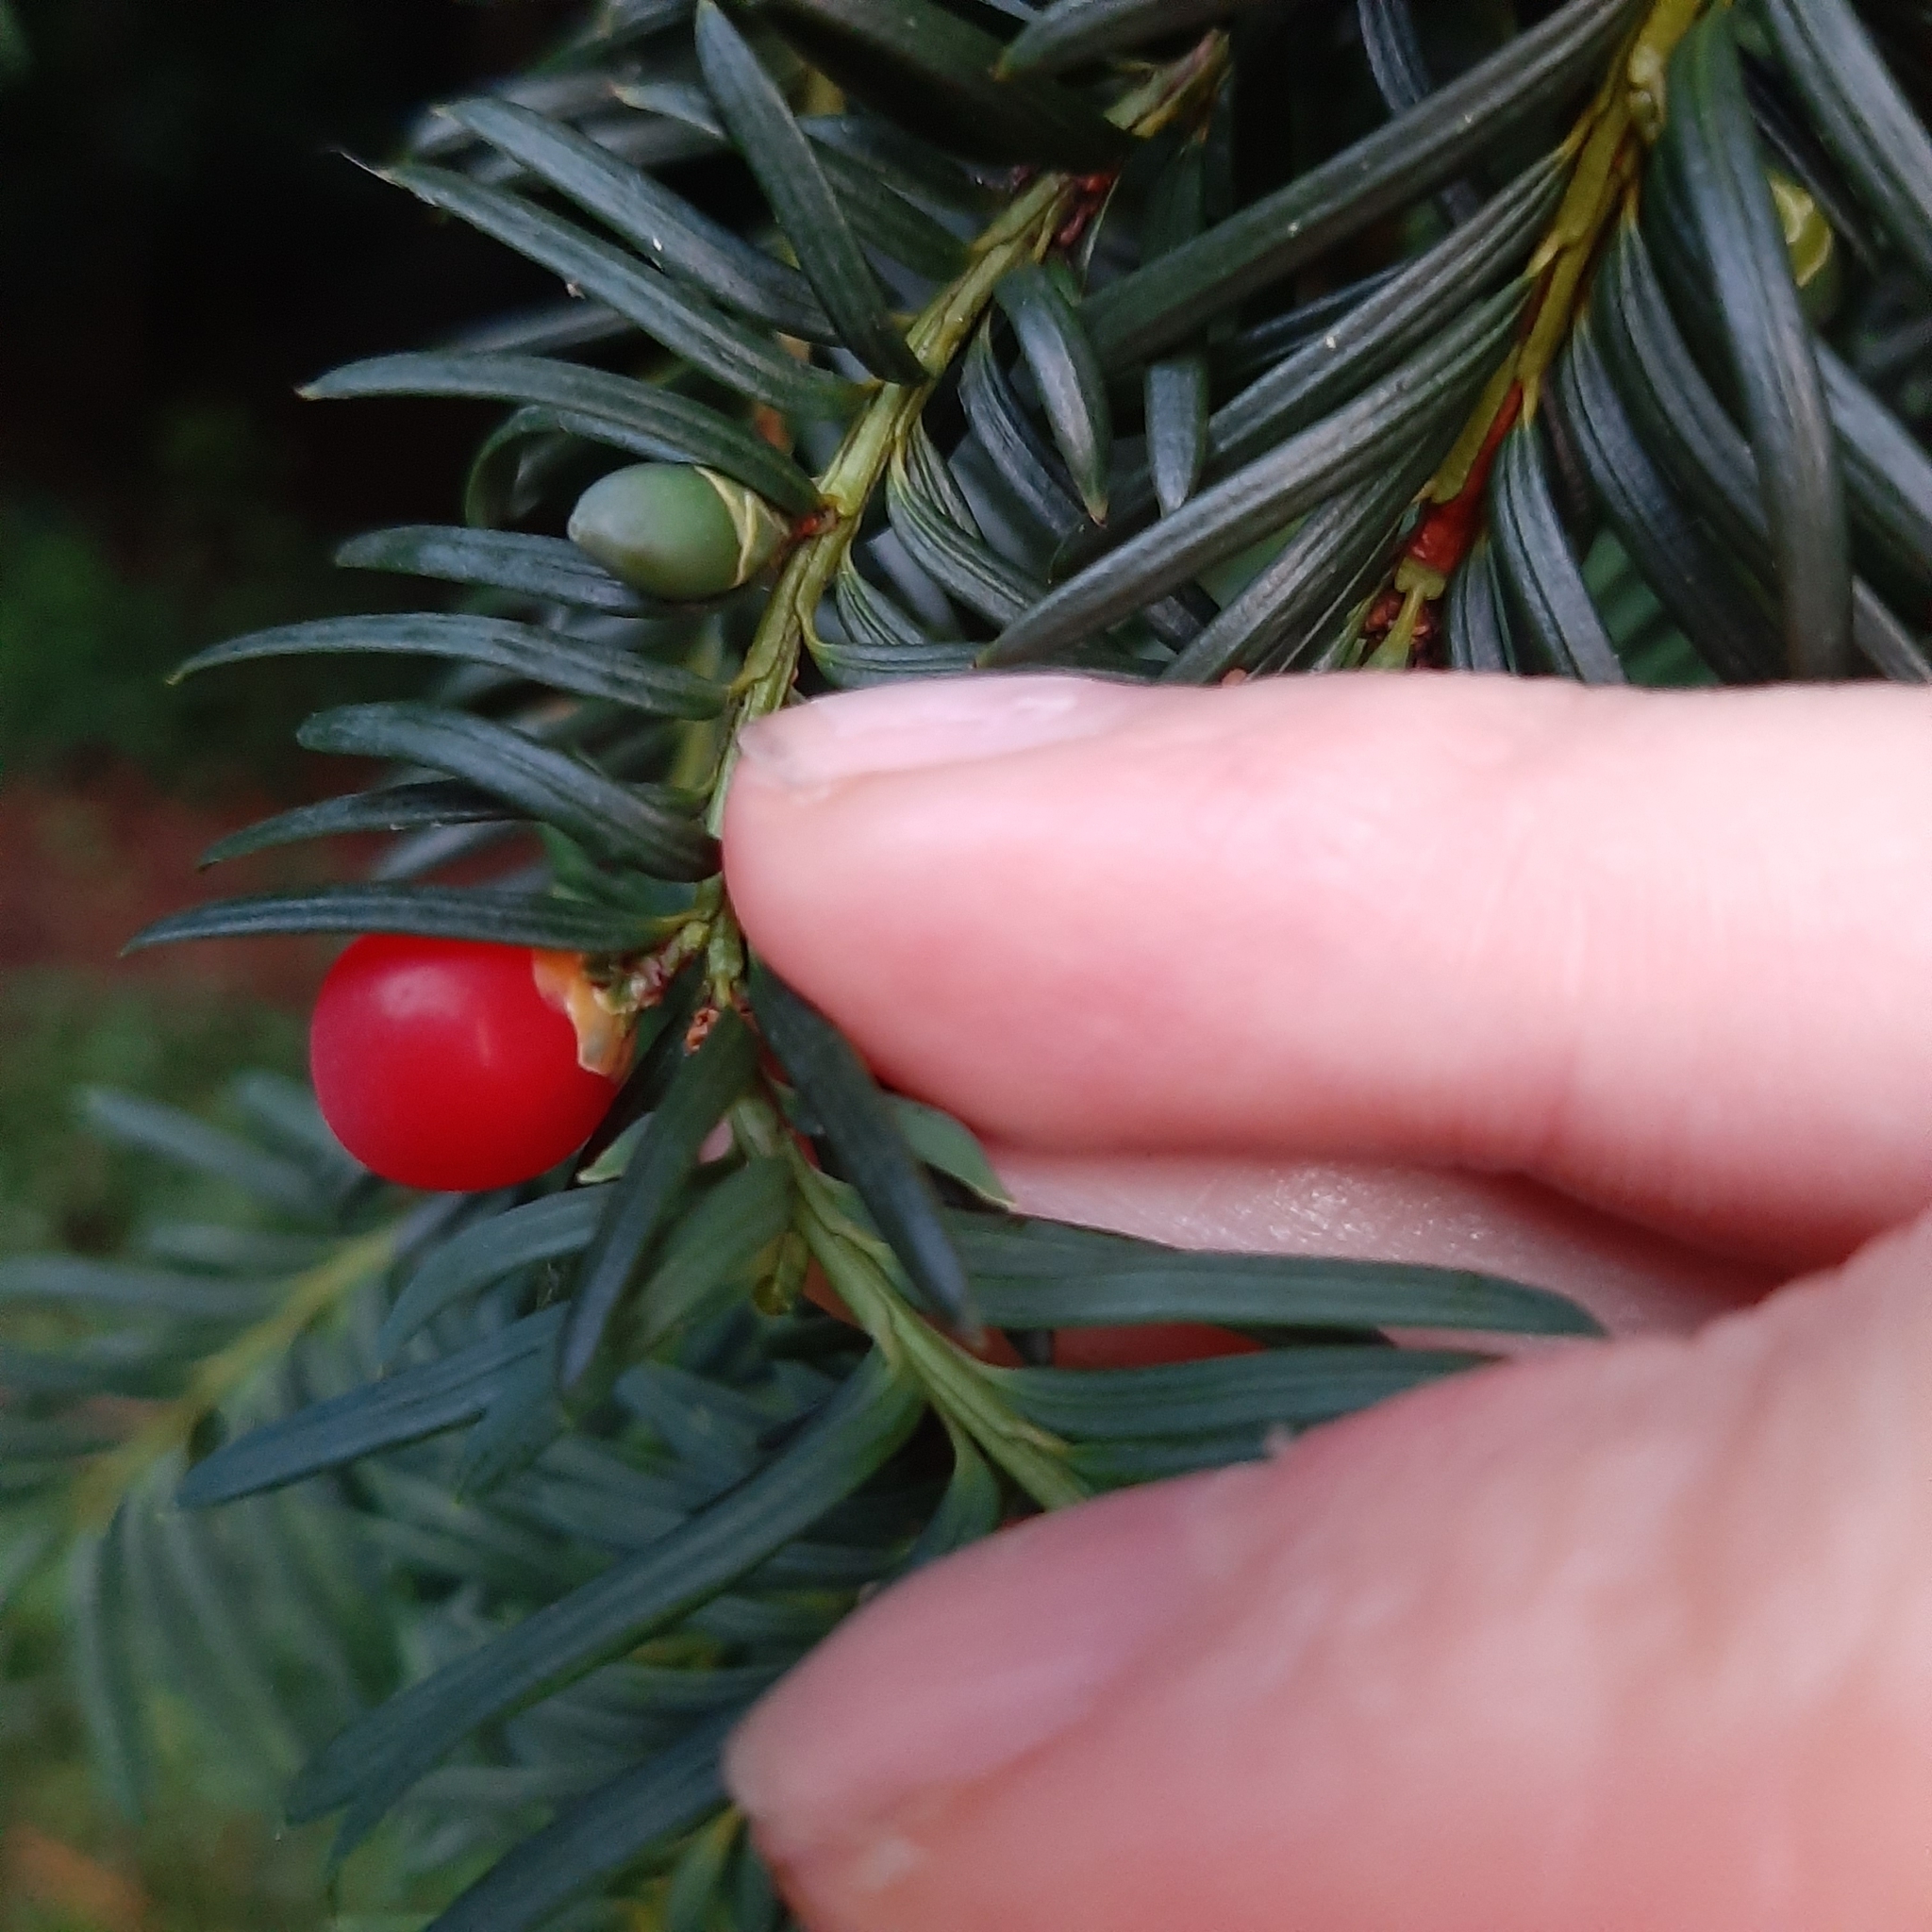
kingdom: Plantae
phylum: Tracheophyta
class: Pinopsida
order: Pinales
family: Taxaceae
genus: Taxus
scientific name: Taxus baccata
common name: Yew
